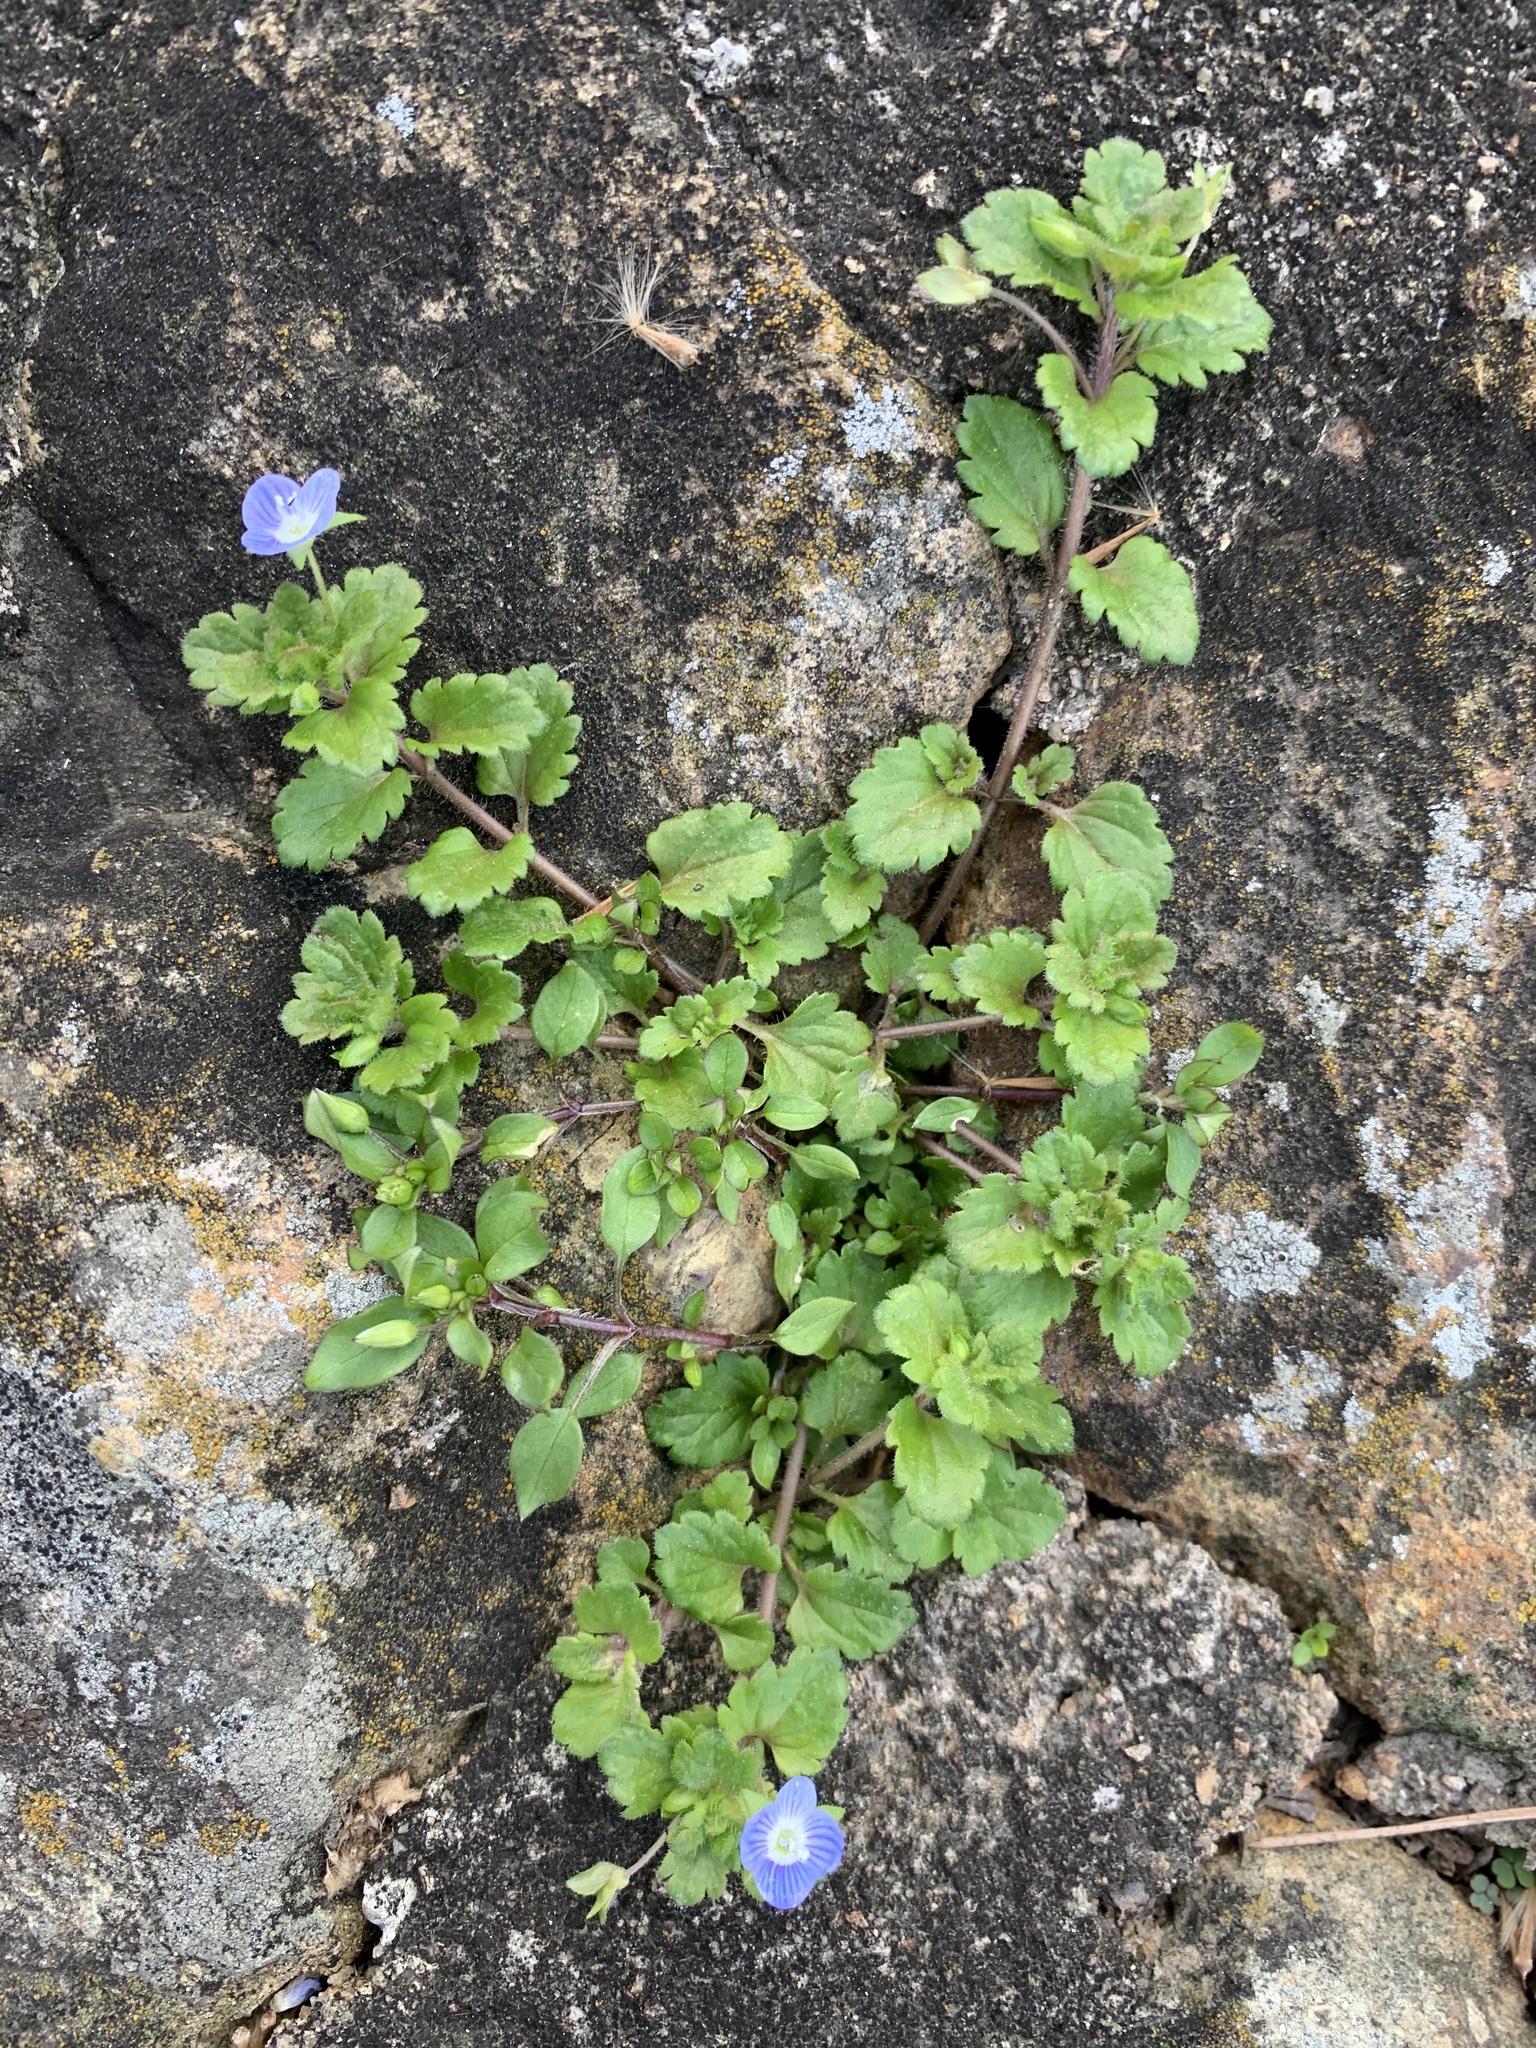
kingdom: Plantae
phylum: Tracheophyta
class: Magnoliopsida
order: Lamiales
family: Plantaginaceae
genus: Veronica
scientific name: Veronica persica
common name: Common field-speedwell
